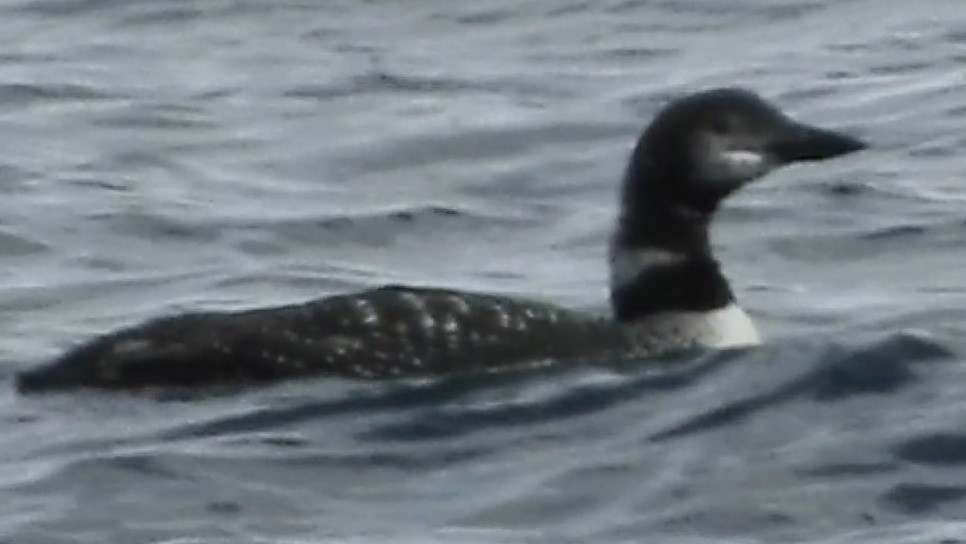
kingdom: Animalia
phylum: Chordata
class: Aves
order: Gaviiformes
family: Gaviidae
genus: Gavia
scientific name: Gavia immer
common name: Common loon
